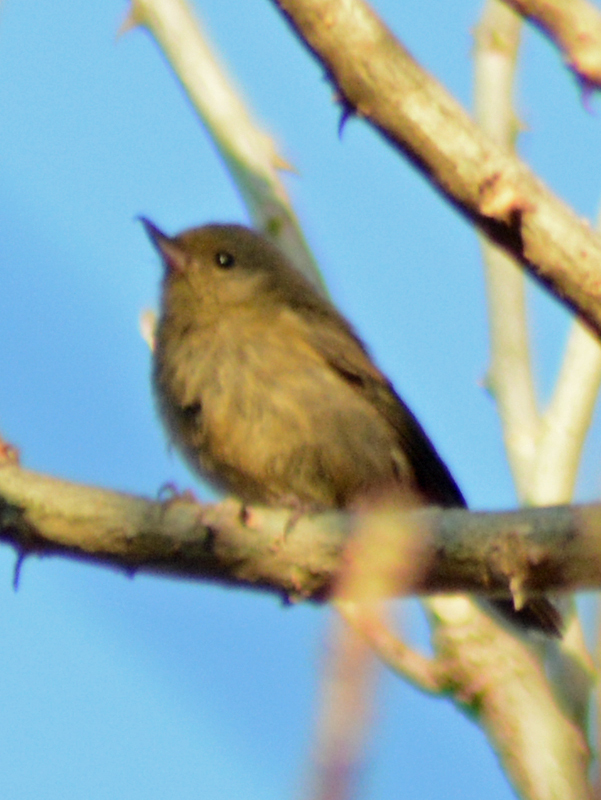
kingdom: Animalia
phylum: Chordata
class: Aves
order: Passeriformes
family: Thraupidae
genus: Diglossa
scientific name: Diglossa baritula
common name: Cinnamon-bellied flowerpiercer
